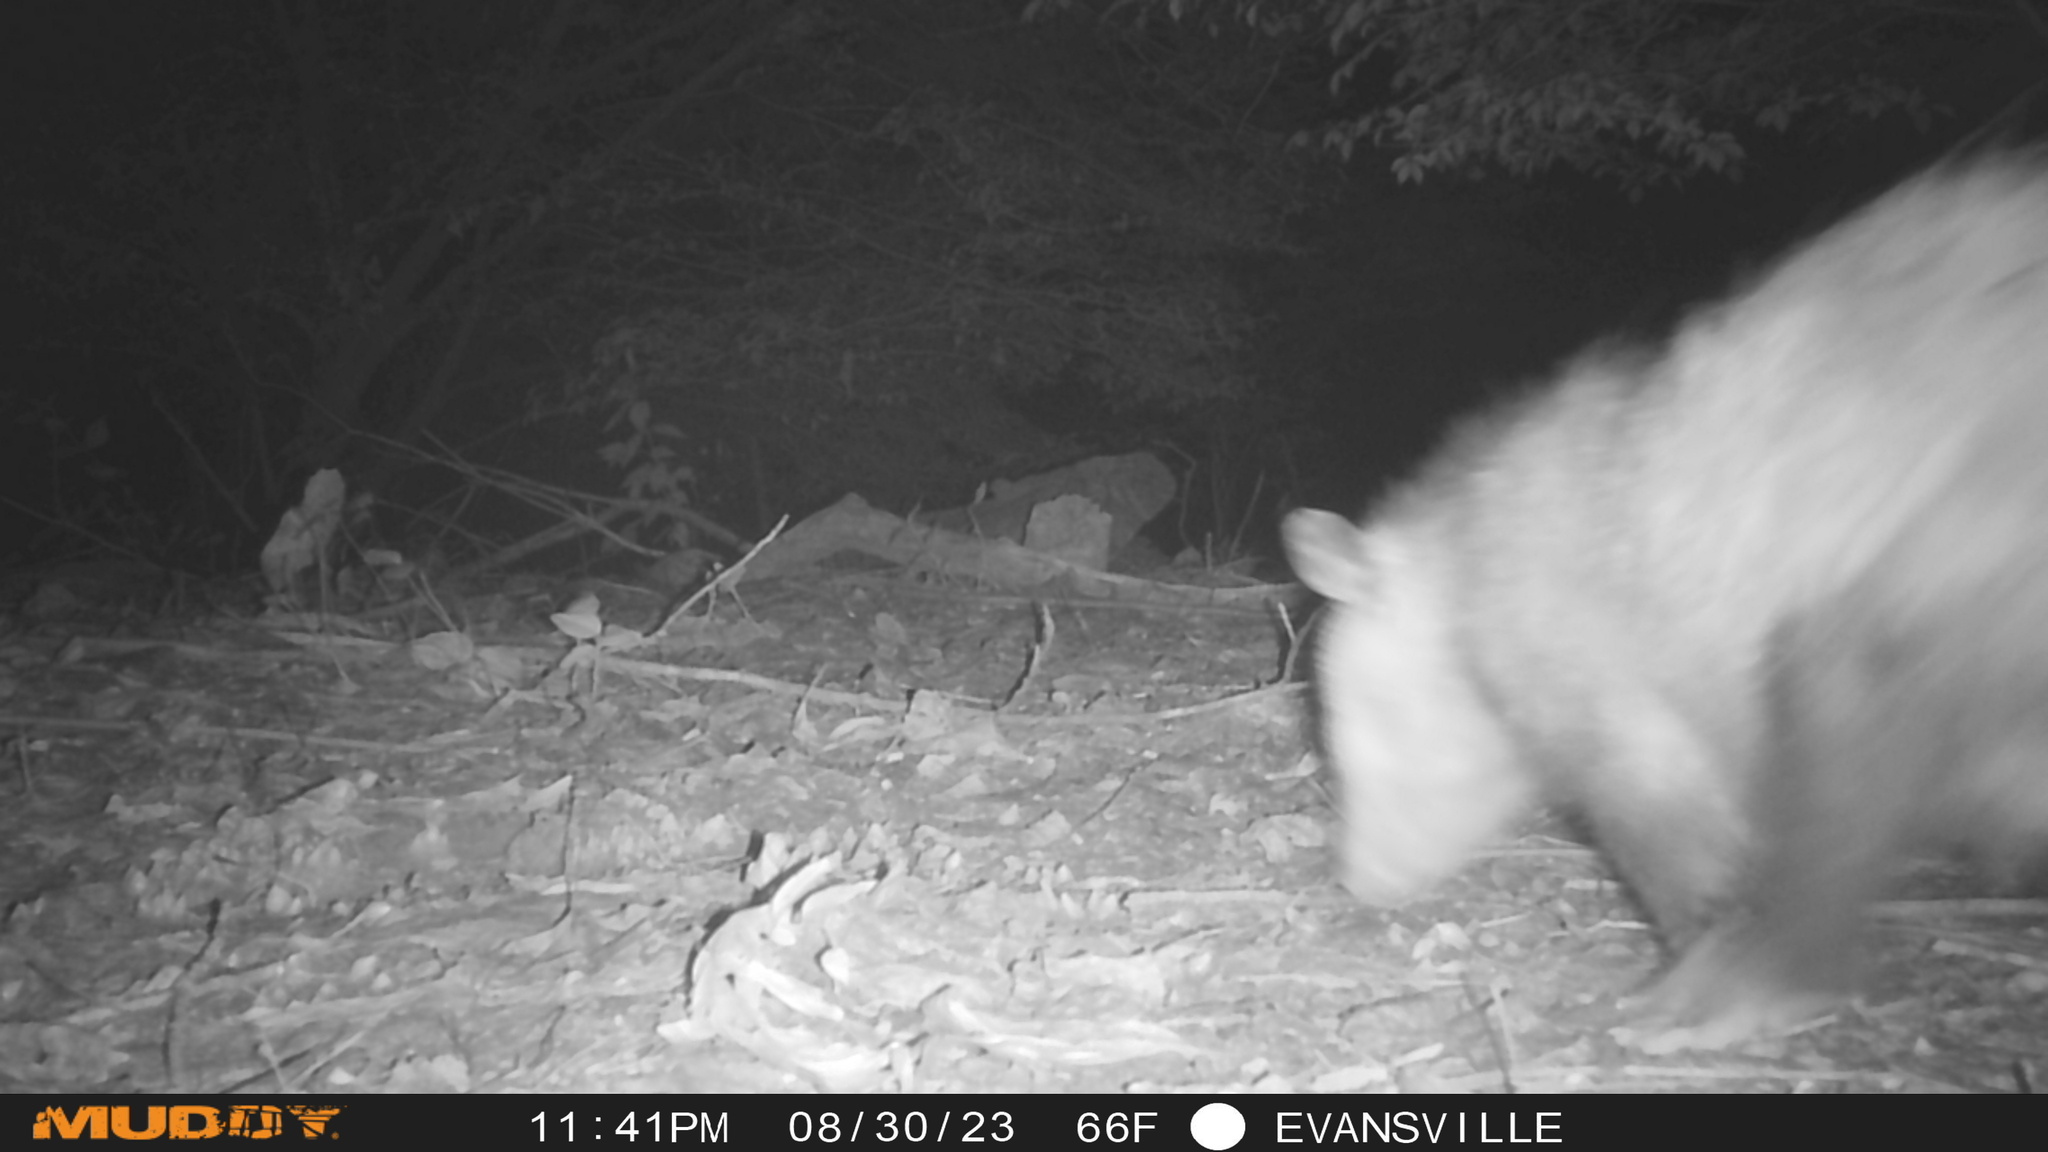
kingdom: Animalia
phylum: Chordata
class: Mammalia
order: Didelphimorphia
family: Didelphidae
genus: Didelphis
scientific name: Didelphis virginiana
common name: Virginia opossum
